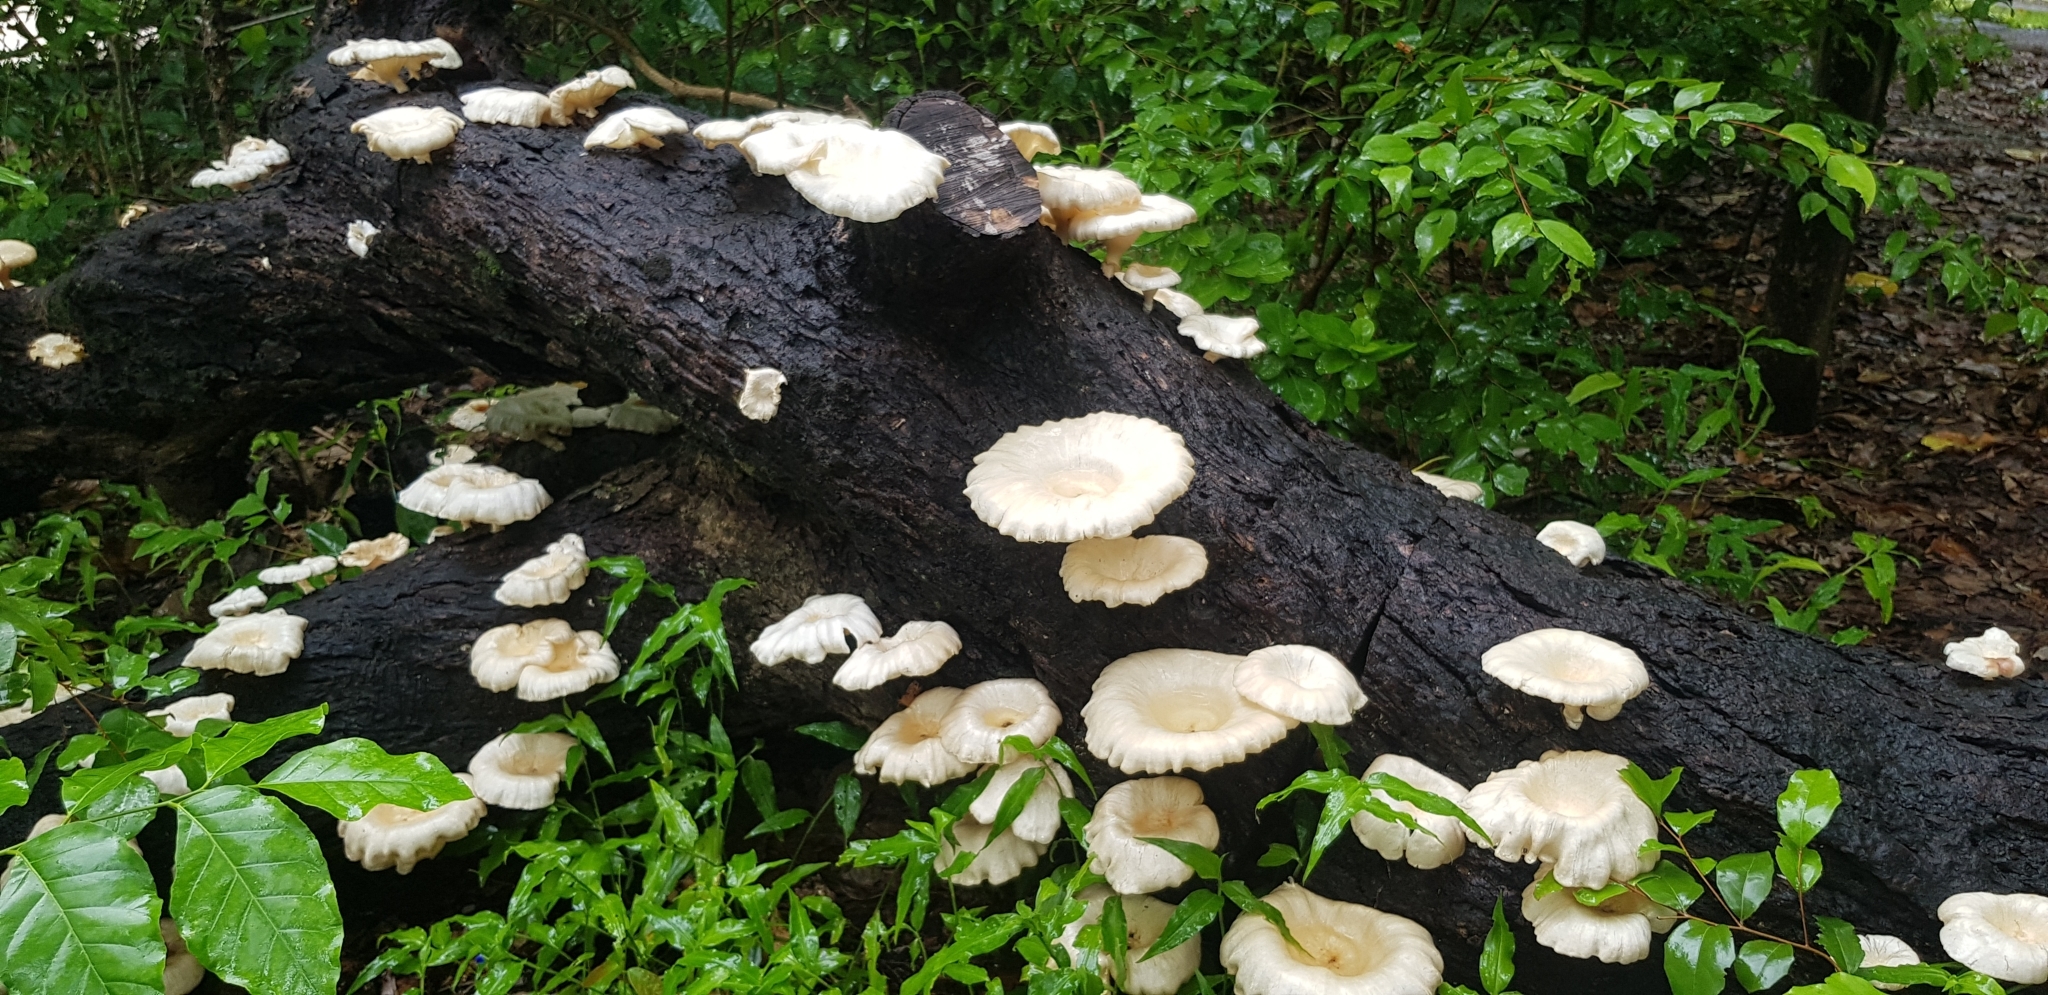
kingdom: Fungi
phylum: Basidiomycota
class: Agaricomycetes
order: Polyporales
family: Polyporaceae
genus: Lentinus
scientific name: Lentinus sajor-caju
